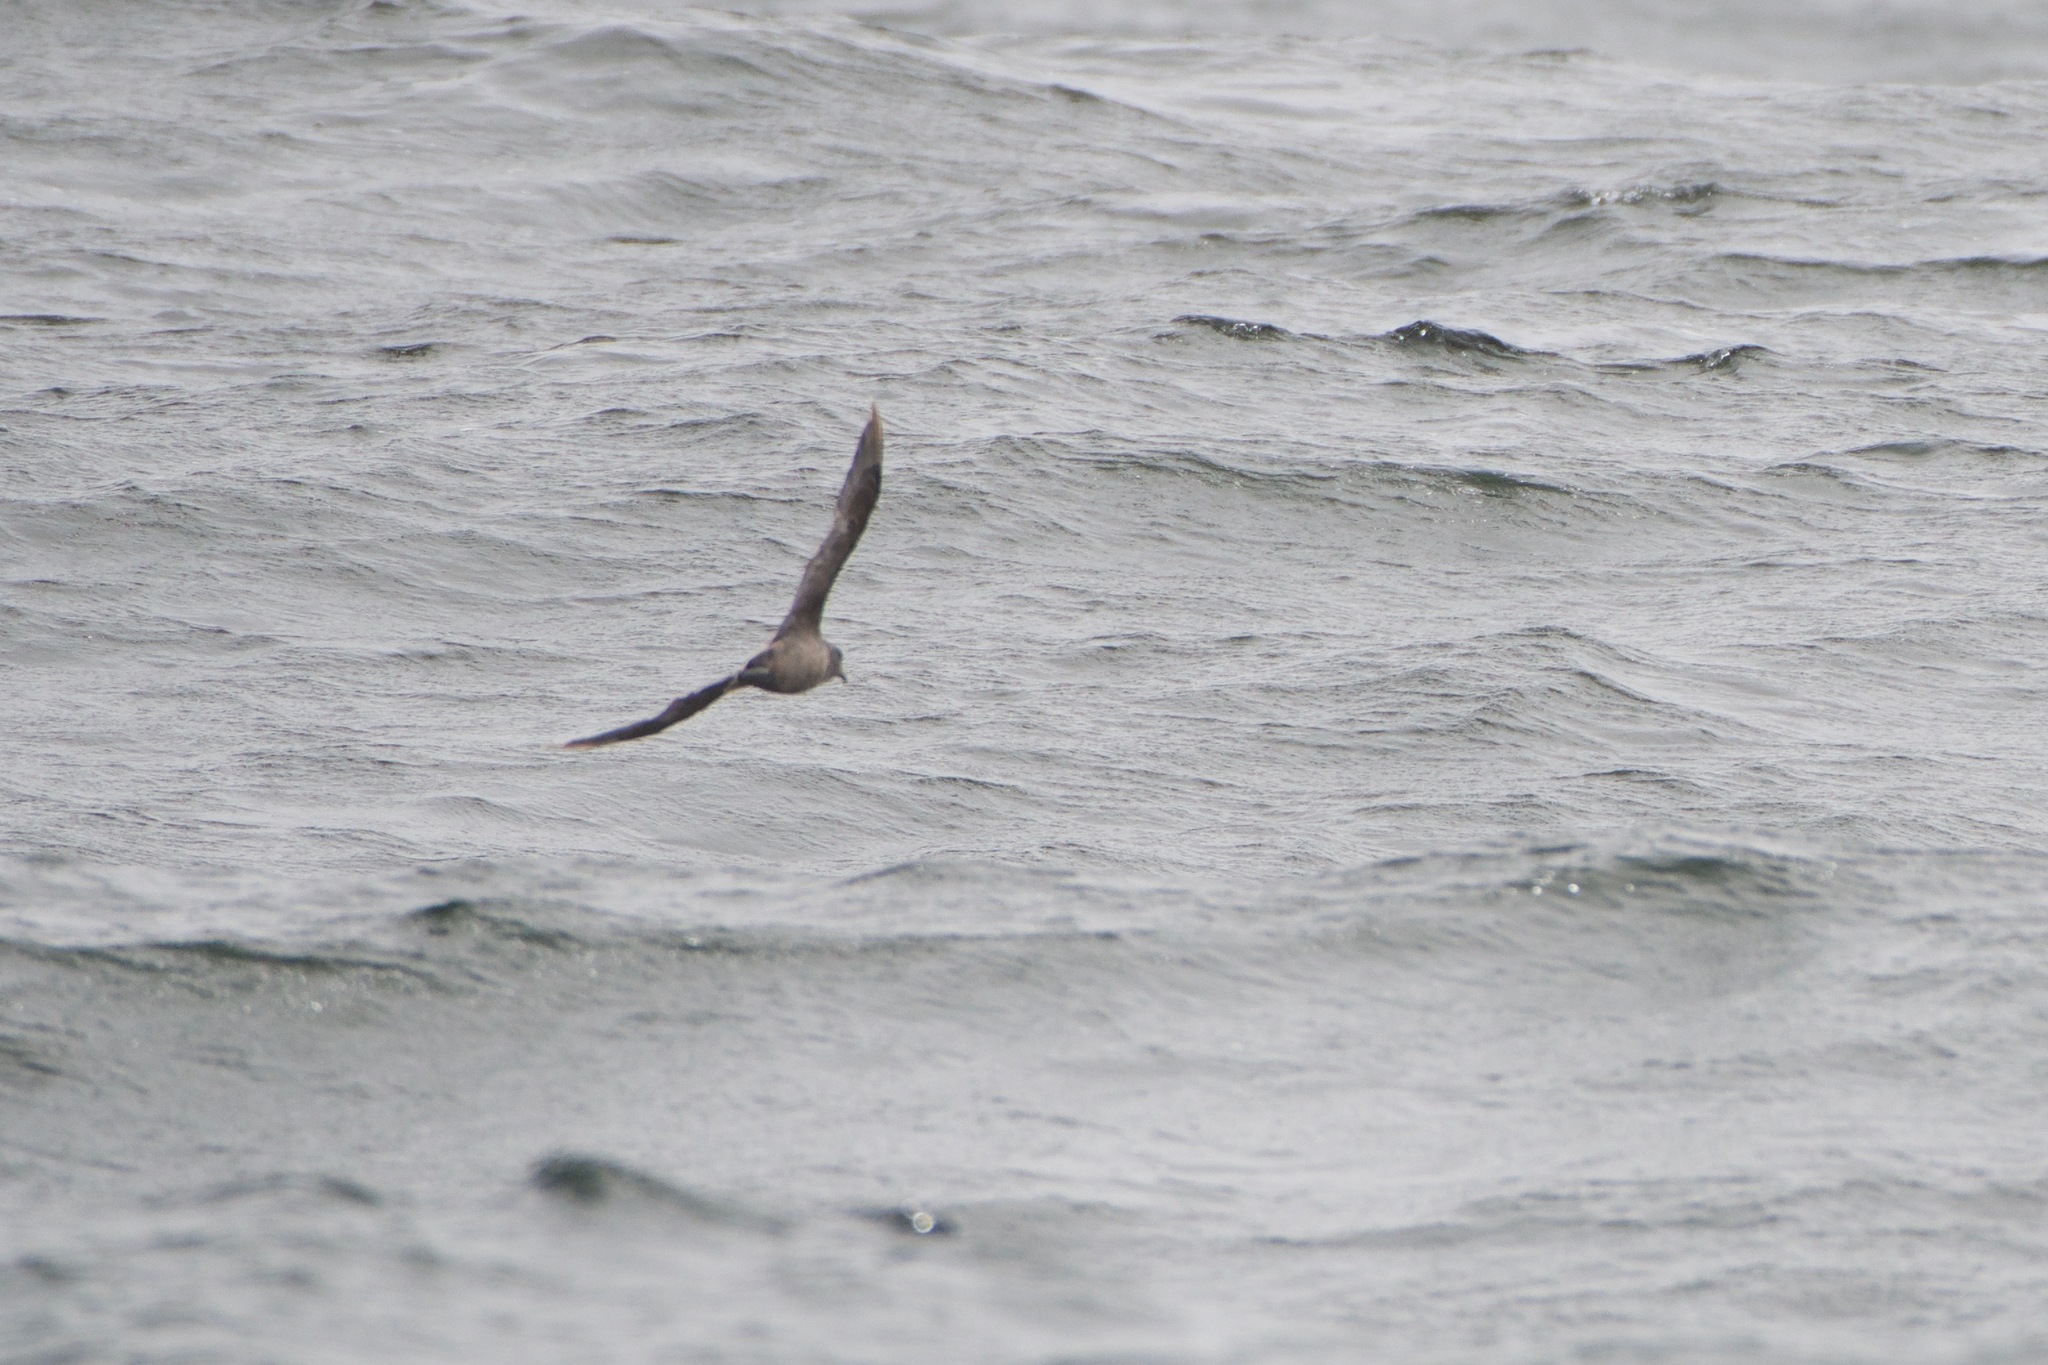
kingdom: Animalia
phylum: Chordata
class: Aves
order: Procellariiformes
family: Procellariidae
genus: Fulmarus
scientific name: Fulmarus glacialis
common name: Northern fulmar
